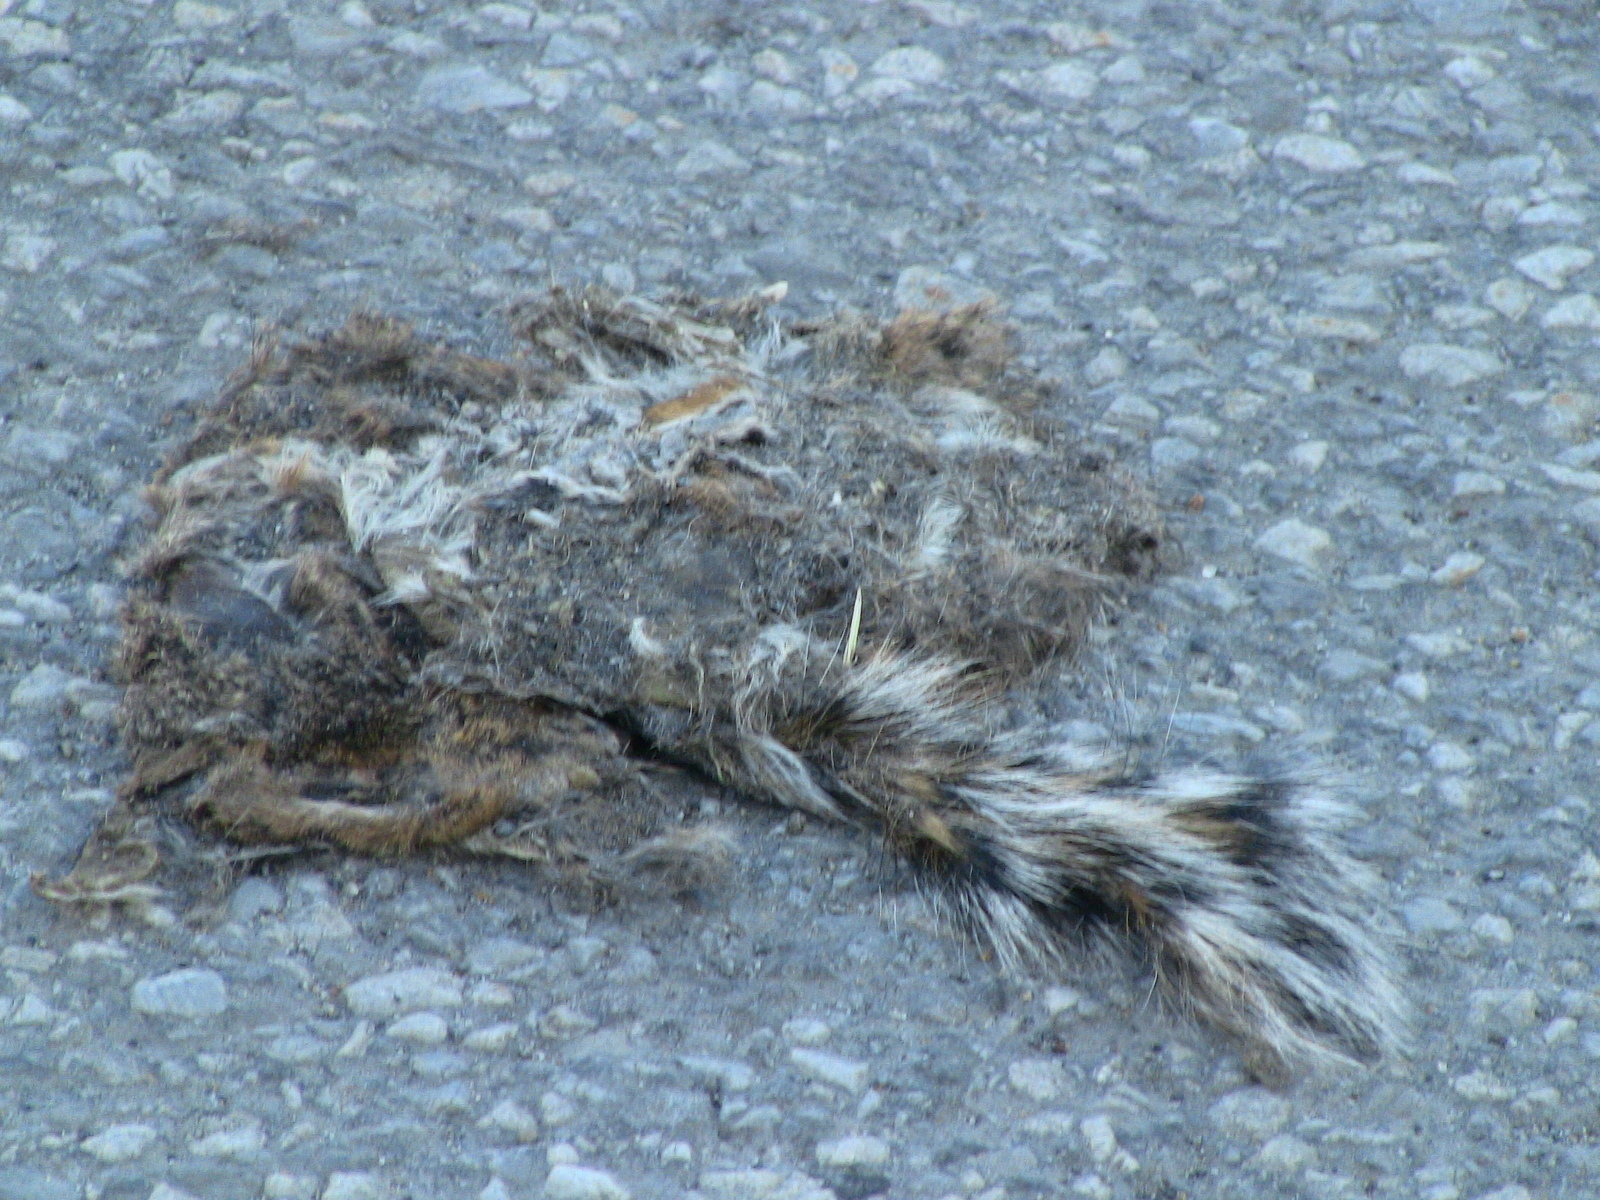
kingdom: Animalia
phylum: Chordata
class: Mammalia
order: Rodentia
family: Sciuridae
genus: Sciurus
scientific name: Sciurus carolinensis
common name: Eastern gray squirrel
